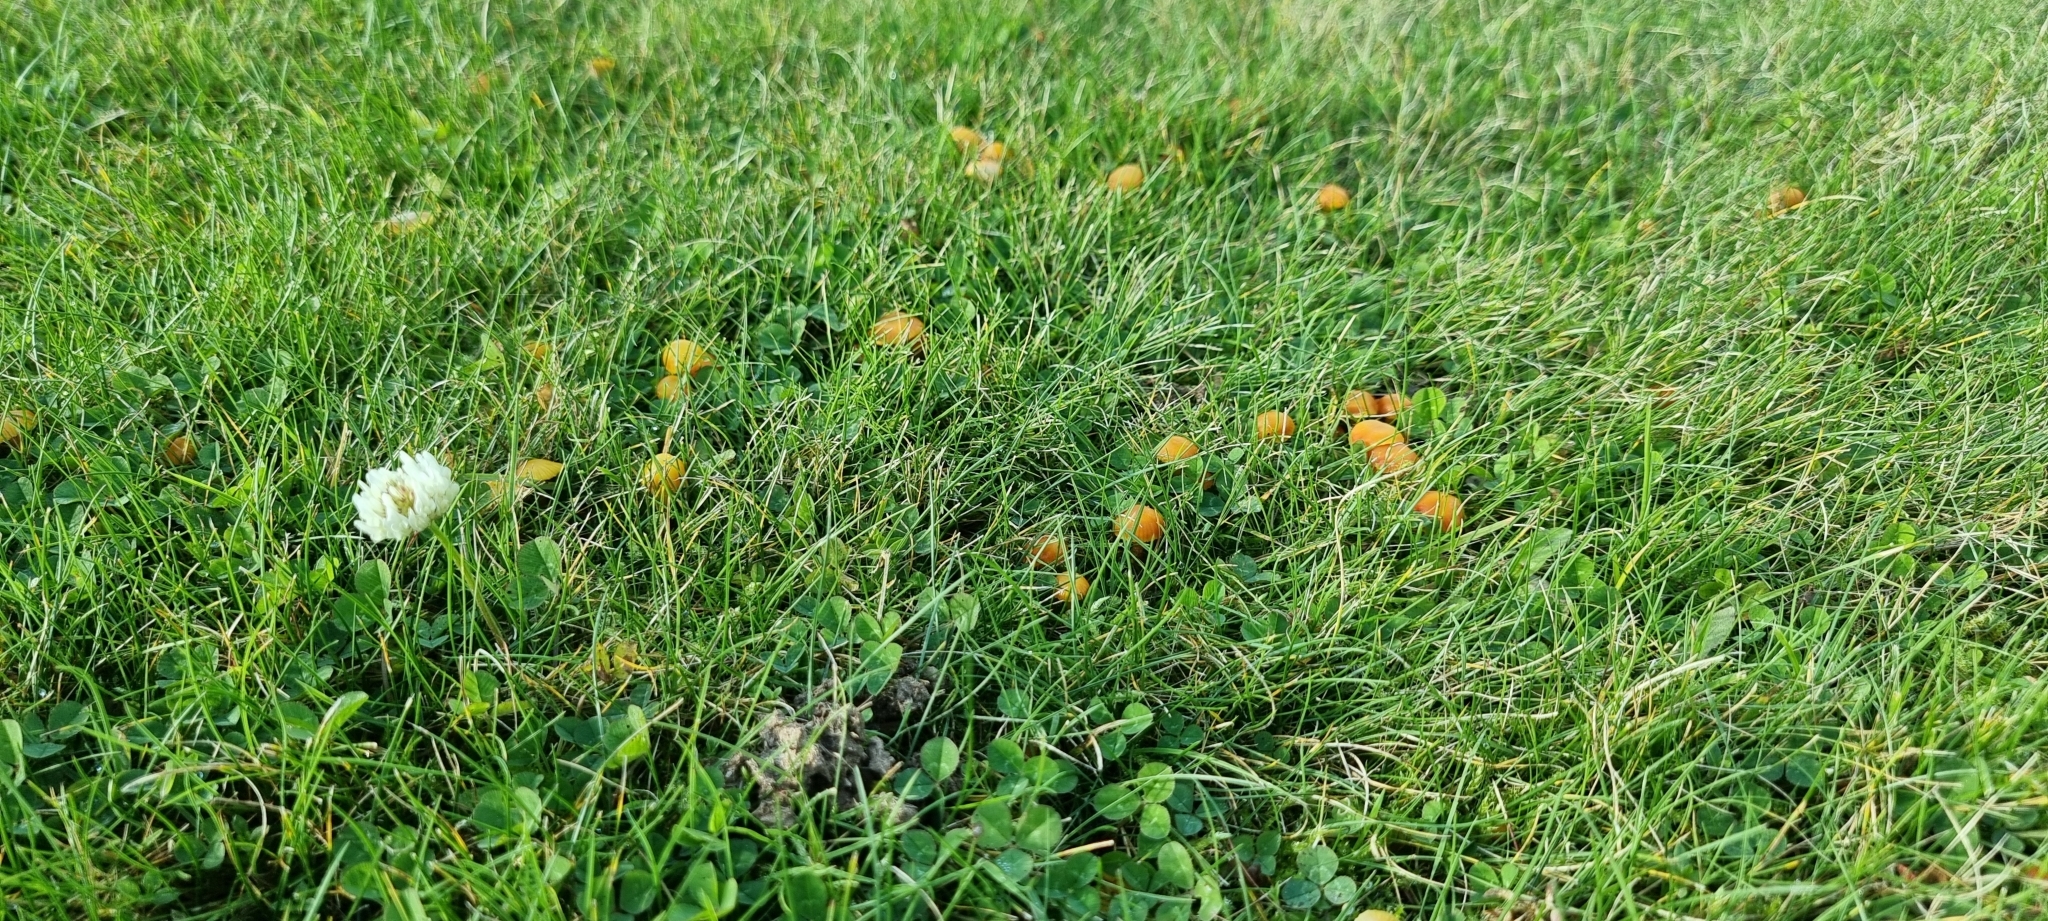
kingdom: Fungi
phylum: Basidiomycota
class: Agaricomycetes
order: Agaricales
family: Hygrophoraceae
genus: Hygrocybe
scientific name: Hygrocybe insipida
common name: Spangle waxcap
